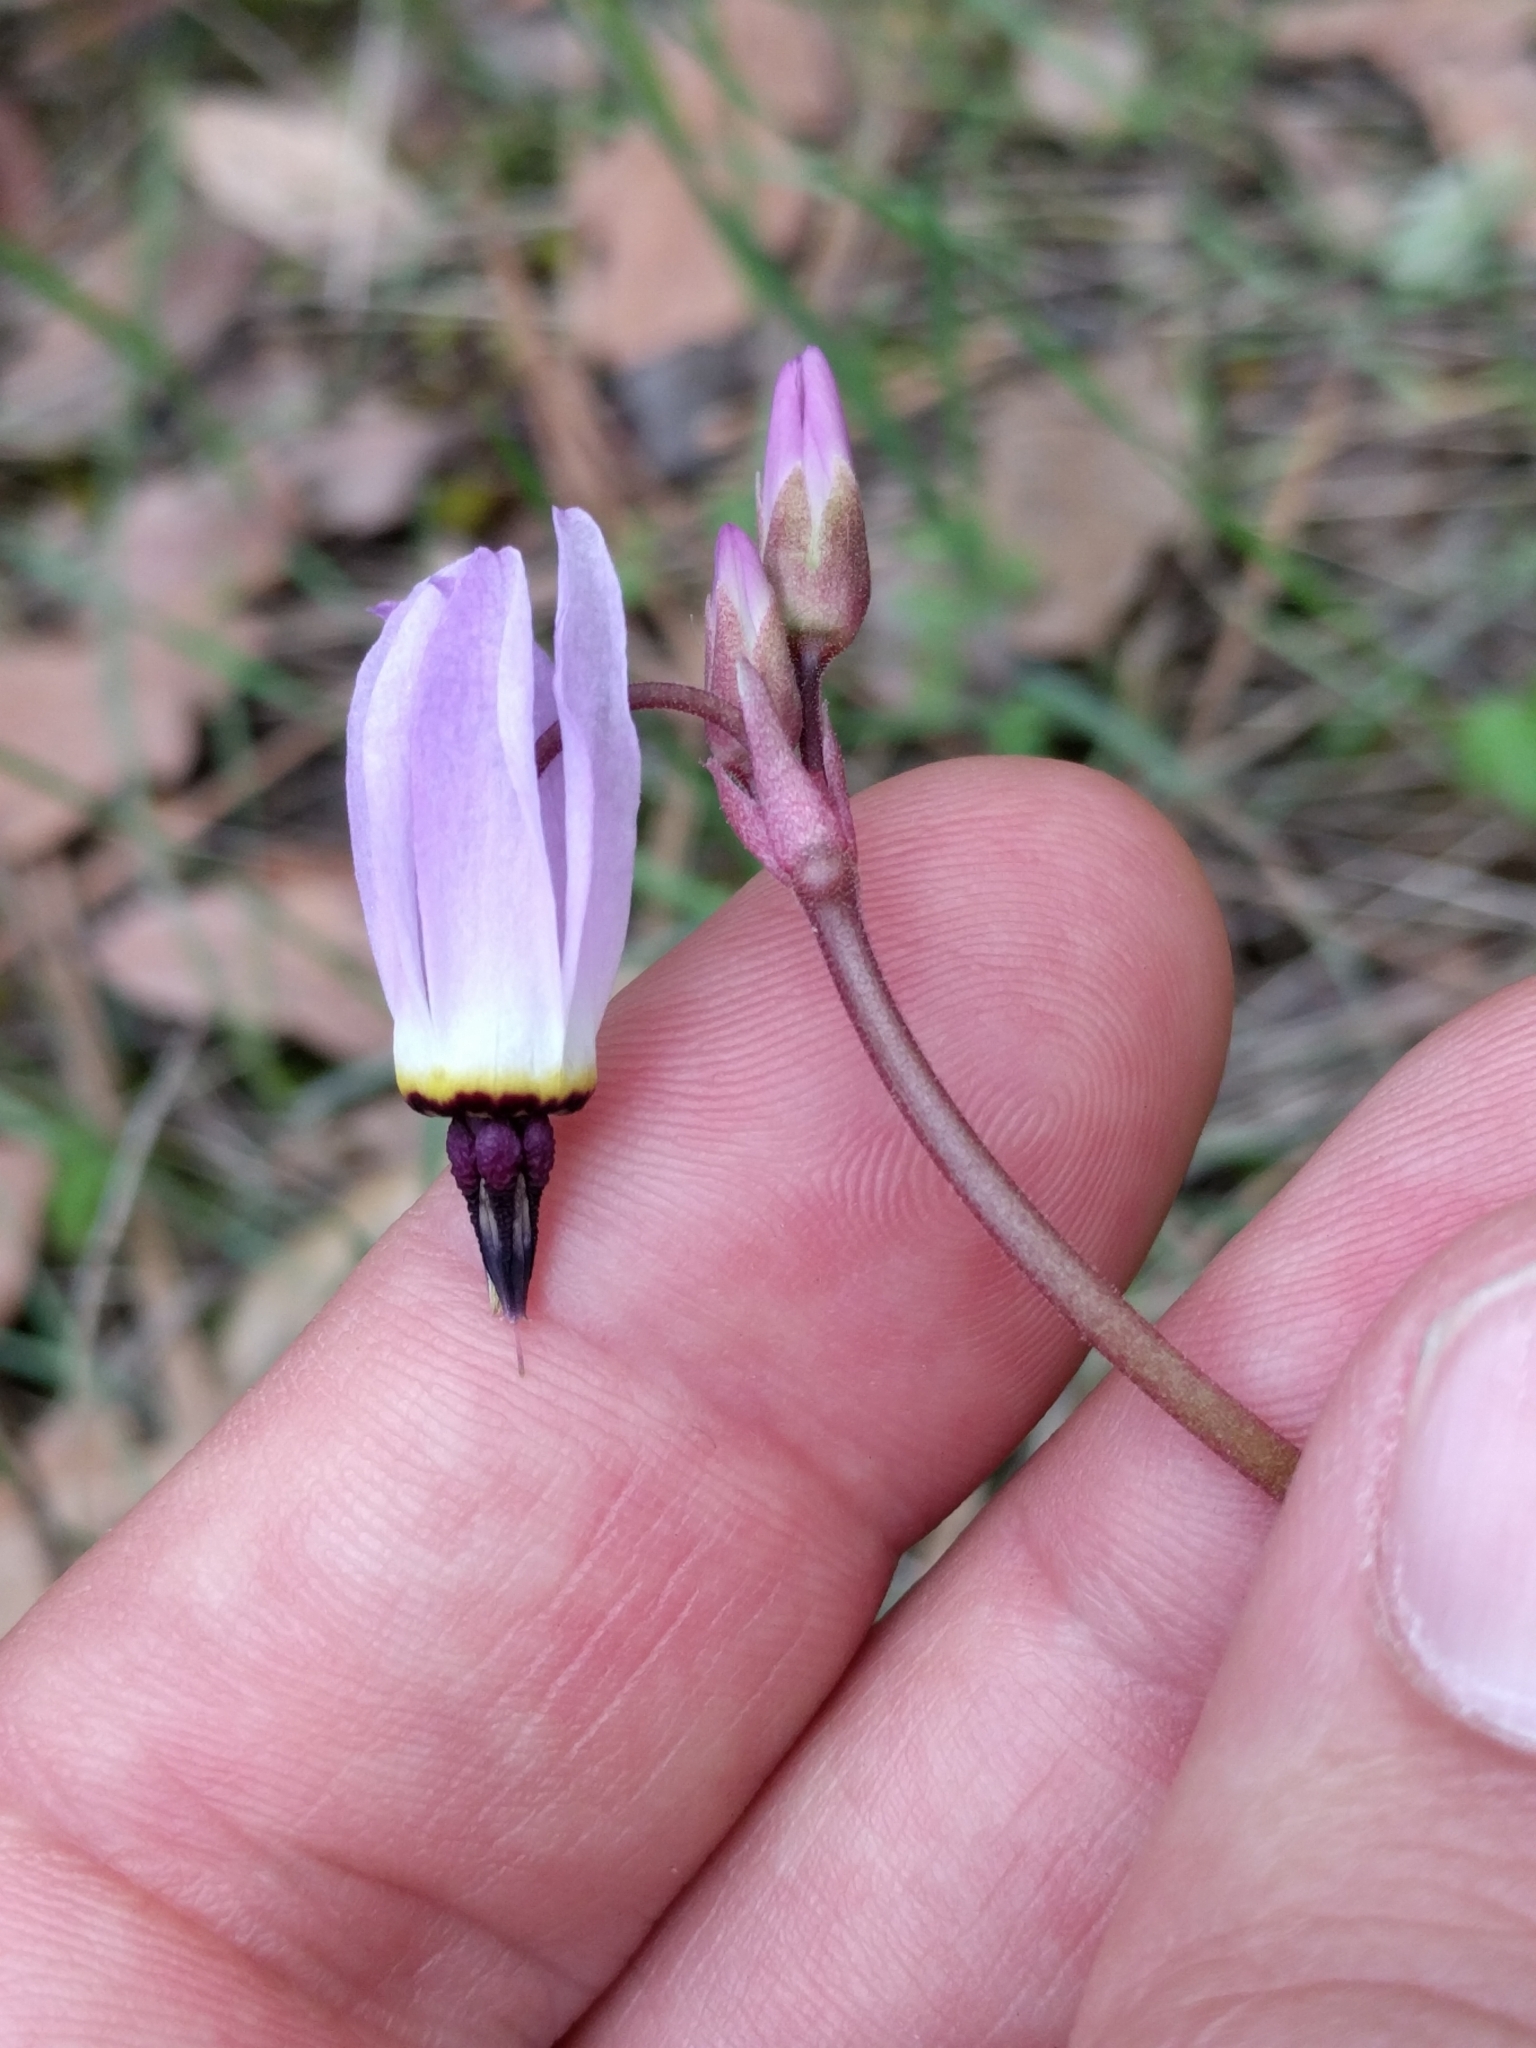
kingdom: Plantae
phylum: Tracheophyta
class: Magnoliopsida
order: Ericales
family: Primulaceae
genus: Dodecatheon
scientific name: Dodecatheon hendersonii
